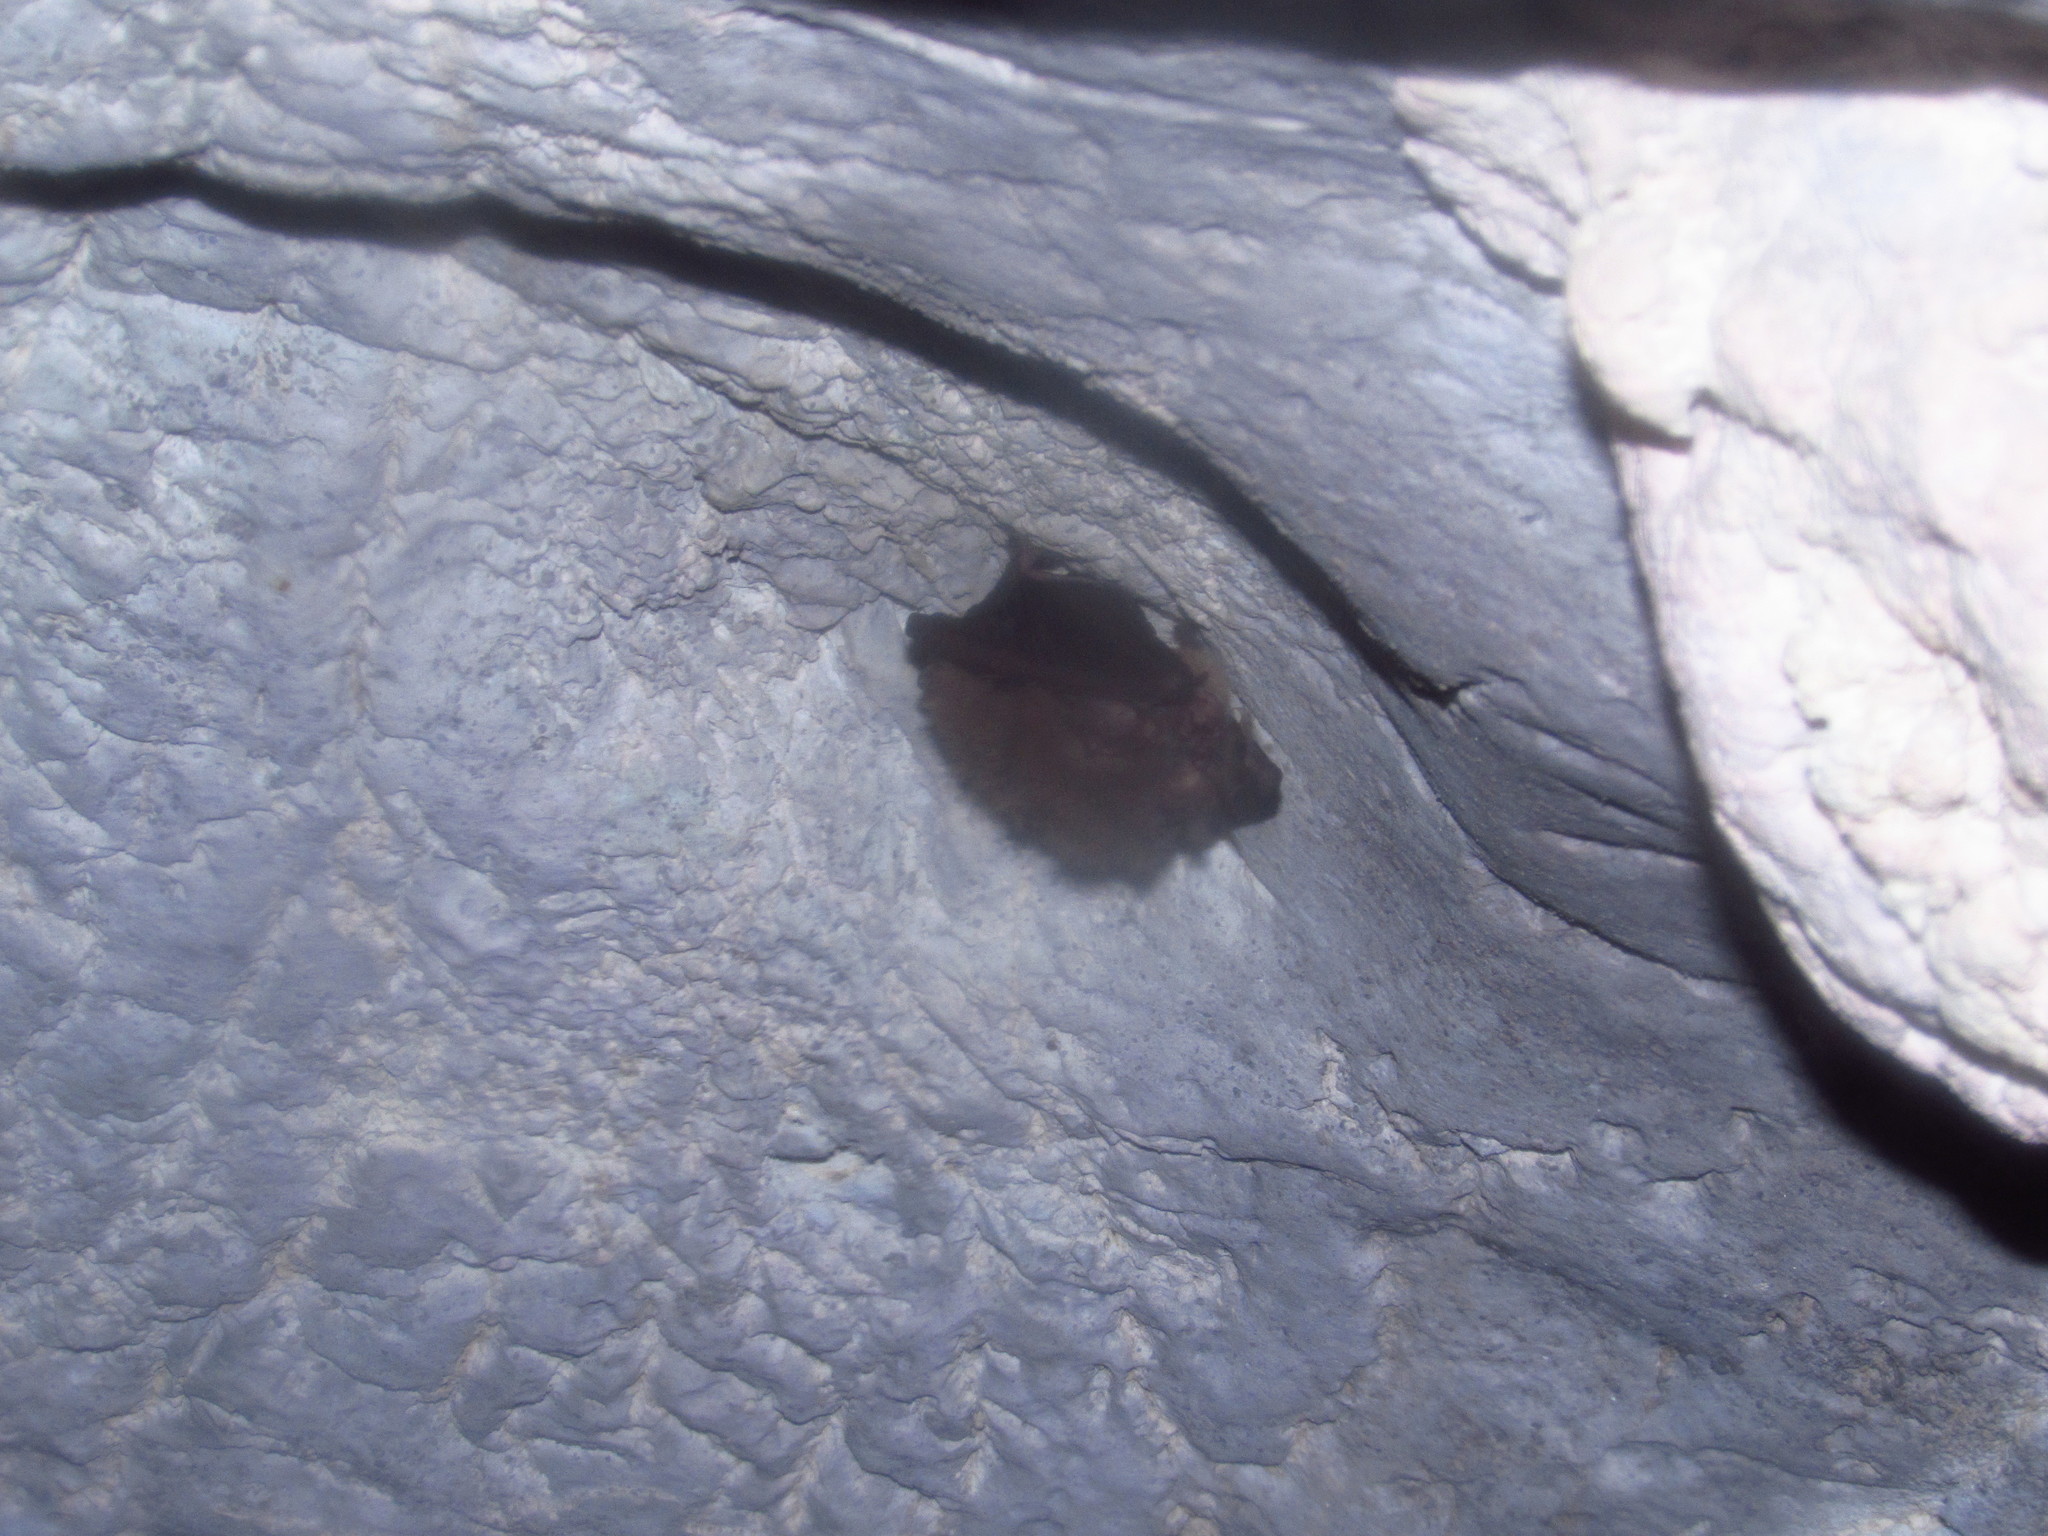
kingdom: Animalia
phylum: Chordata
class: Mammalia
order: Chiroptera
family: Vespertilionidae
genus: Corynorhinus
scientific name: Corynorhinus townsendii
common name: Townsend's big-eared bat
